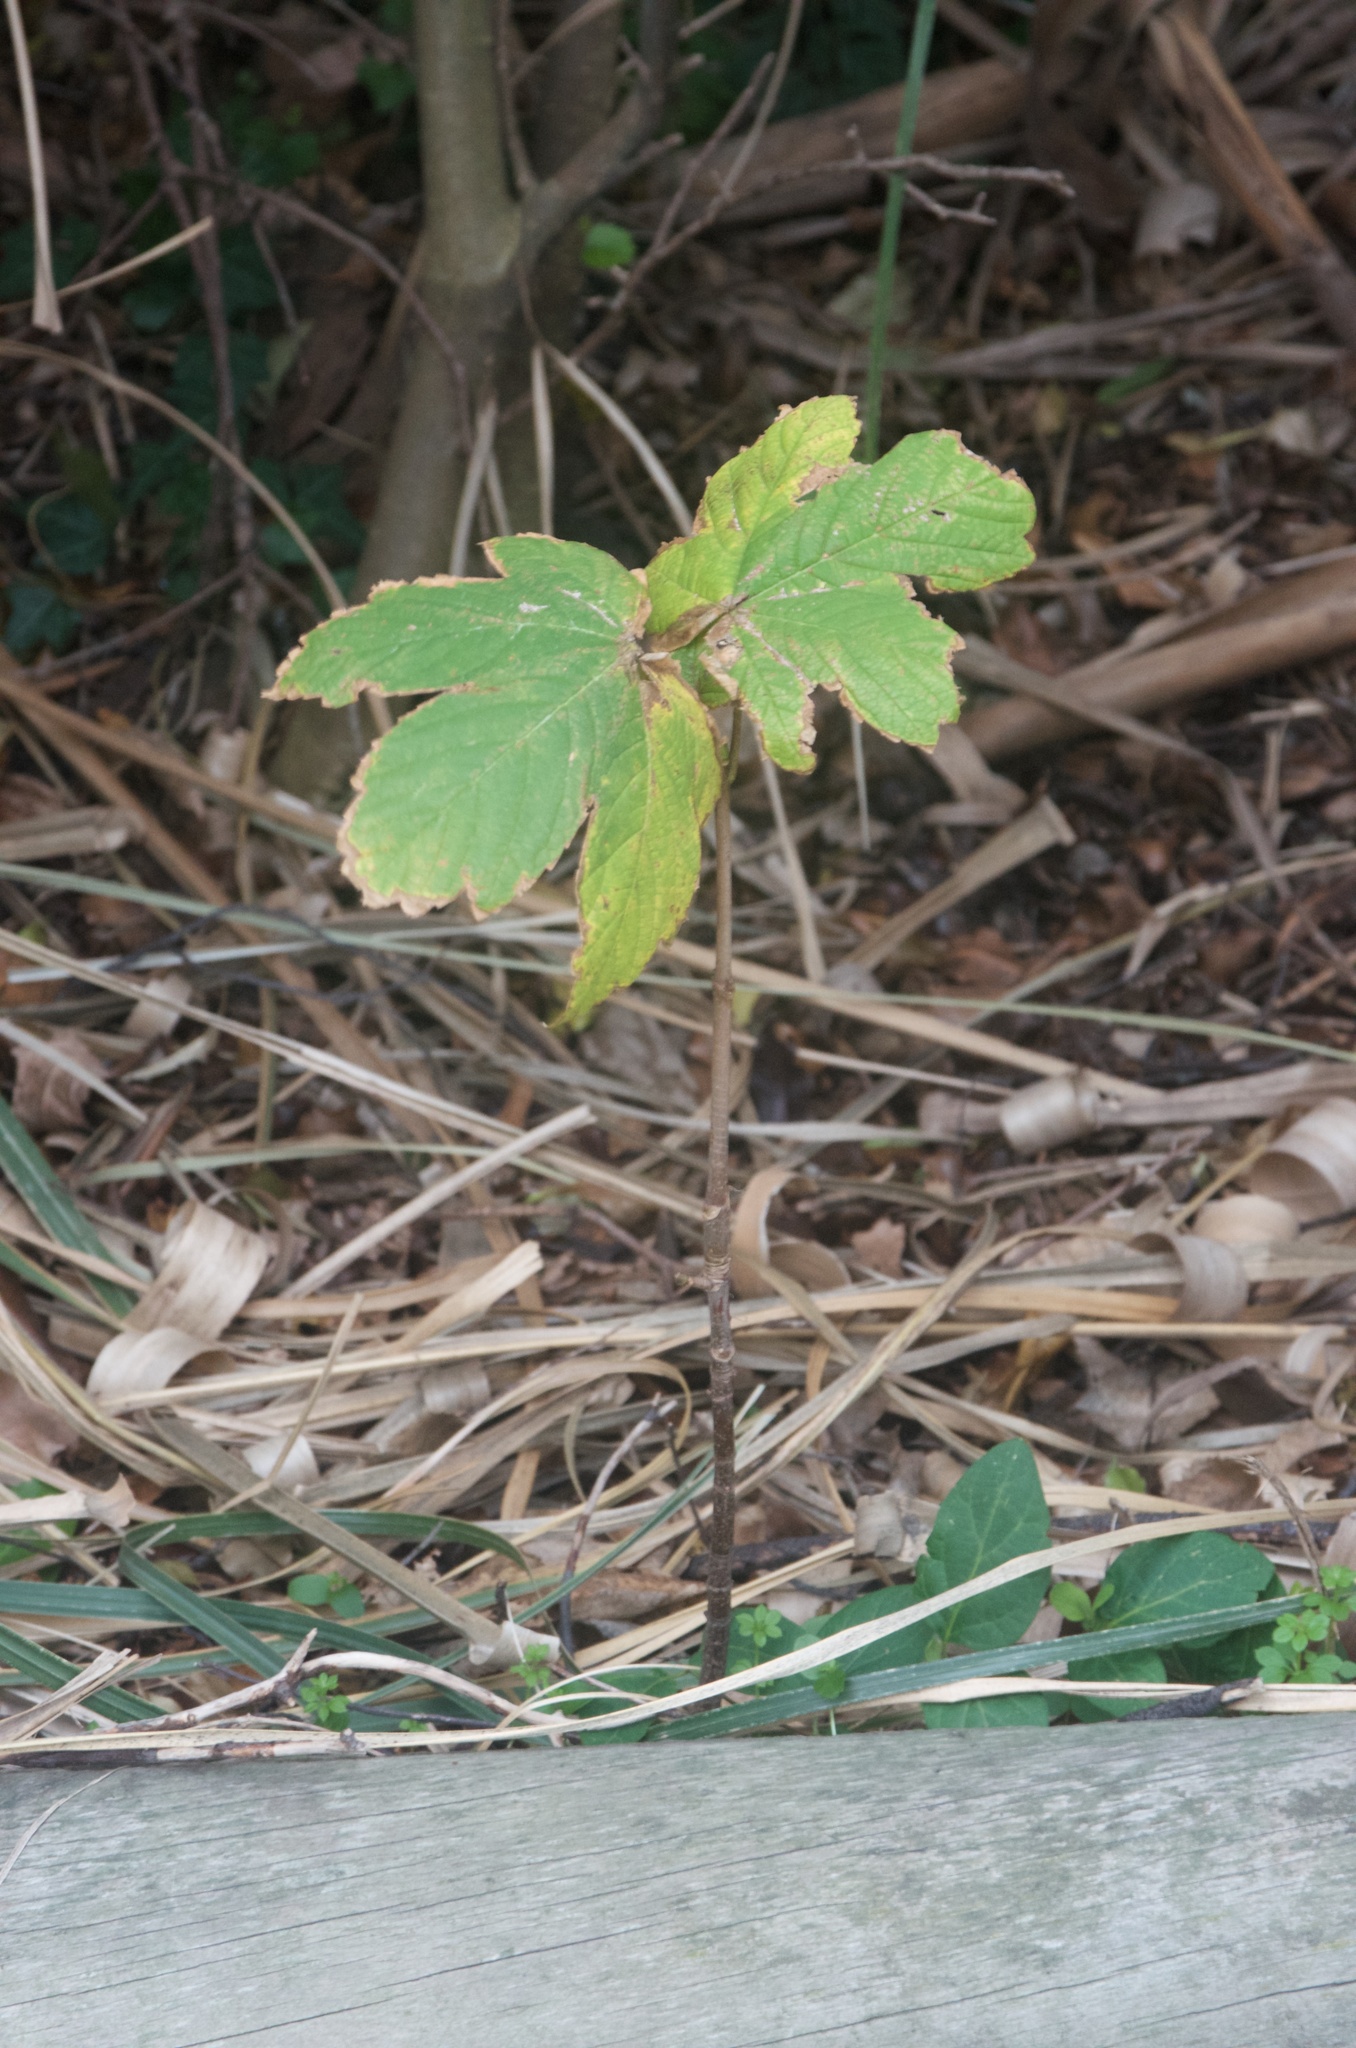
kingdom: Plantae
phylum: Tracheophyta
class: Magnoliopsida
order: Sapindales
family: Sapindaceae
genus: Acer
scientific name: Acer pseudoplatanus
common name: Sycamore
